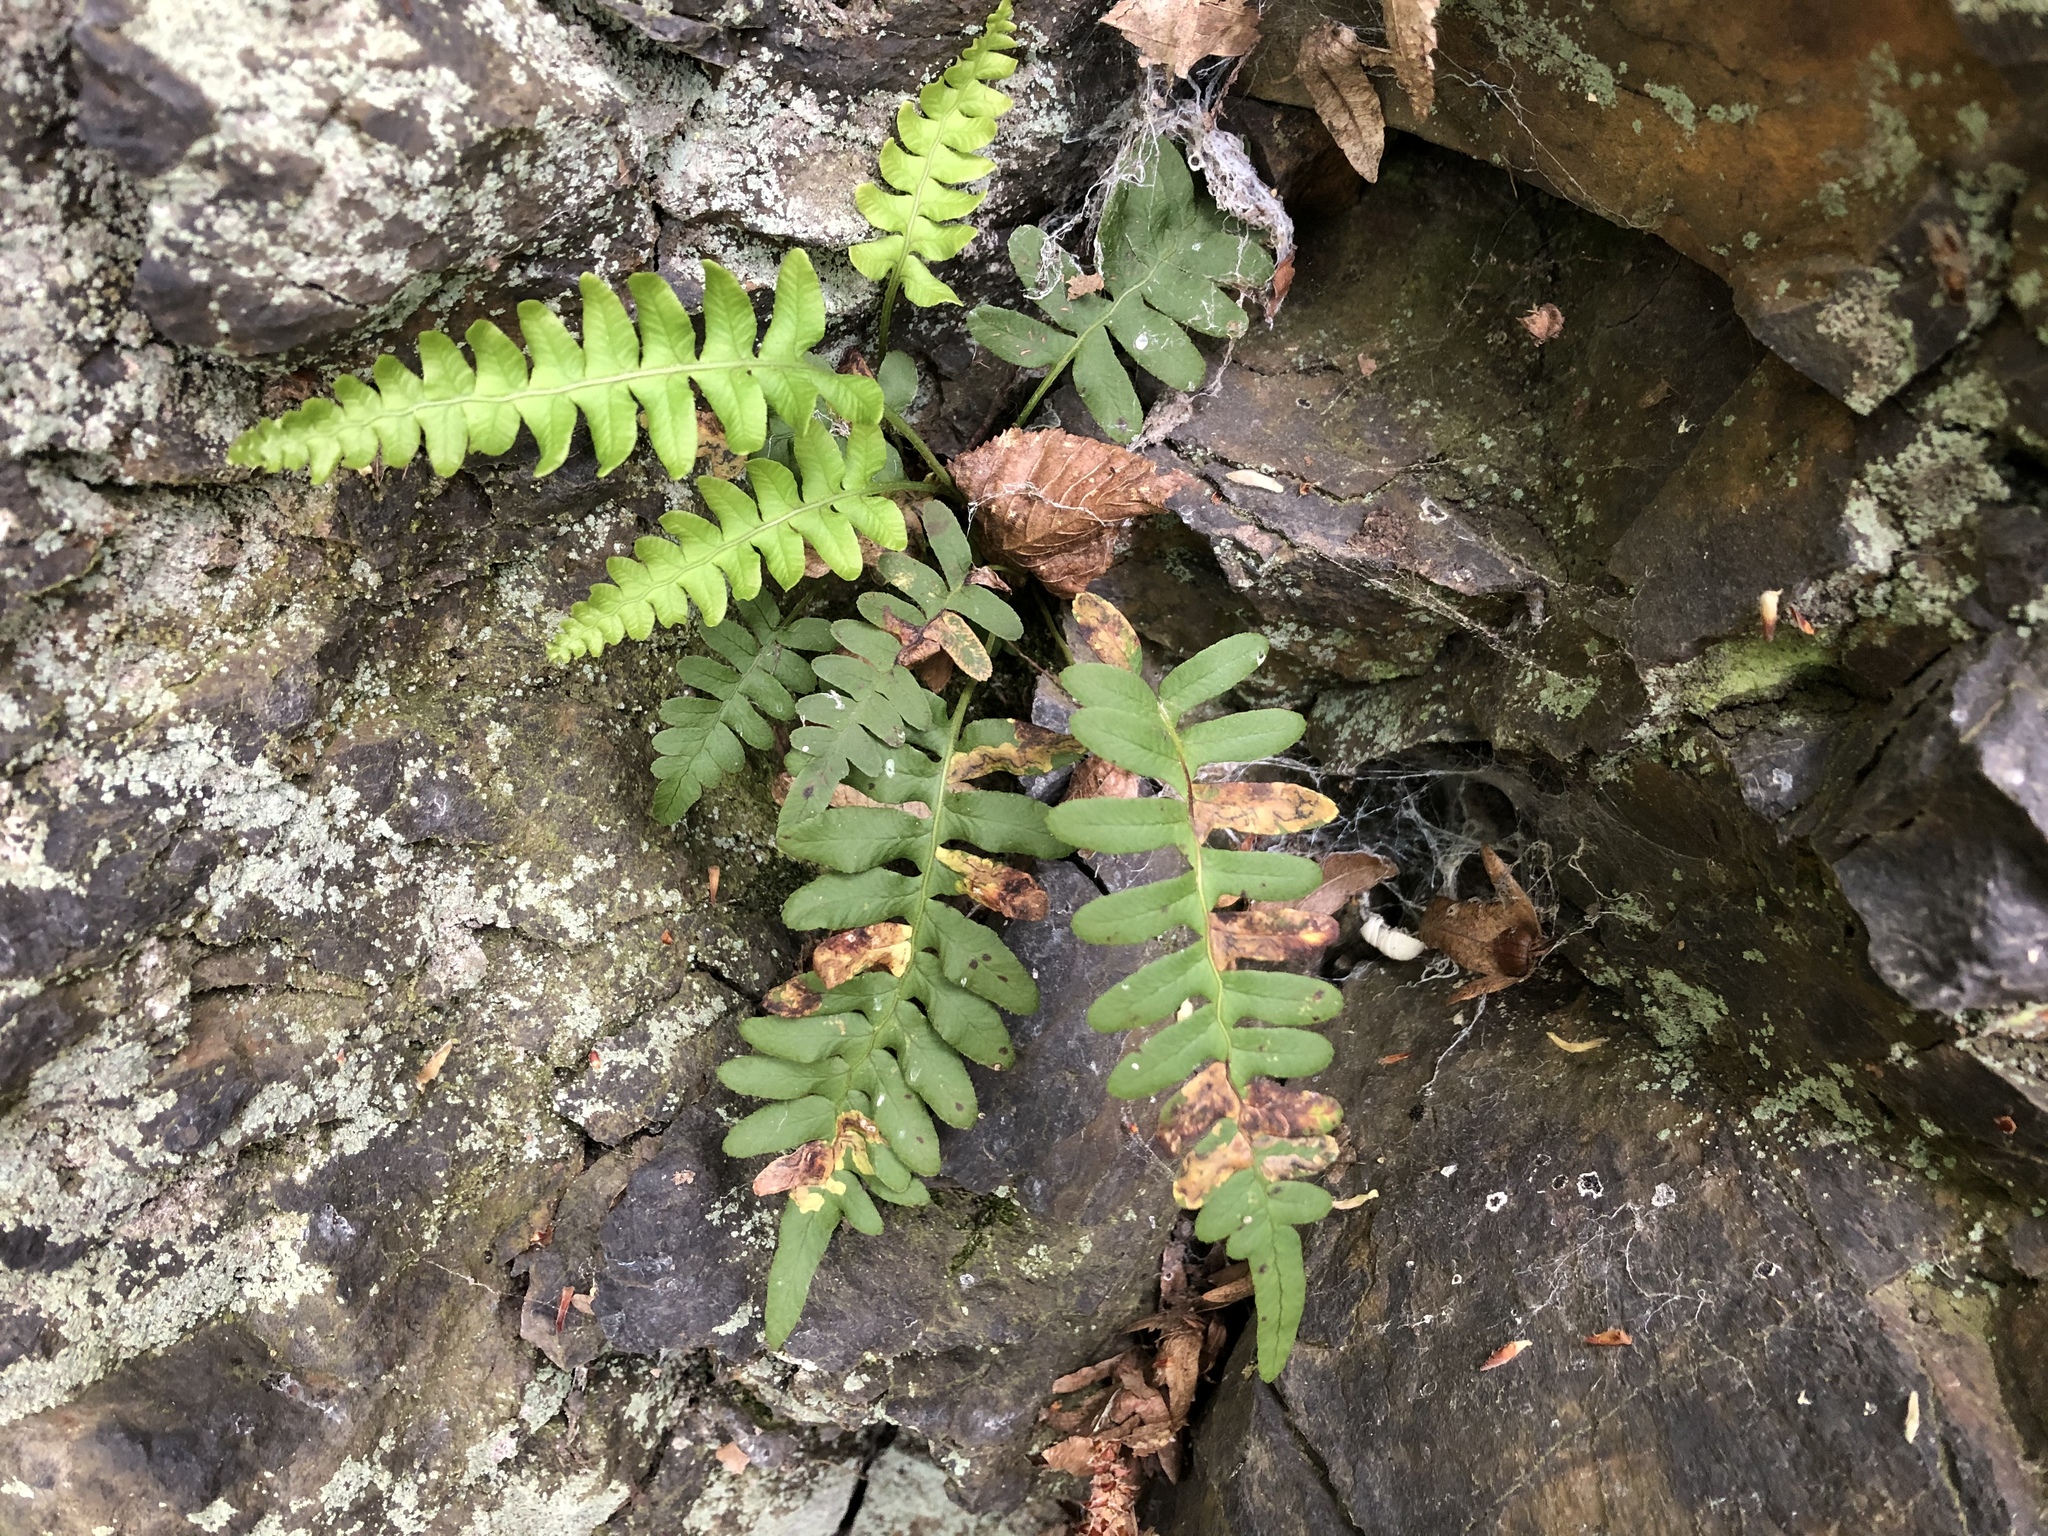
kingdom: Plantae
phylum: Tracheophyta
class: Polypodiopsida
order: Polypodiales
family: Polypodiaceae
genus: Polypodium
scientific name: Polypodium vulgare
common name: Common polypody
